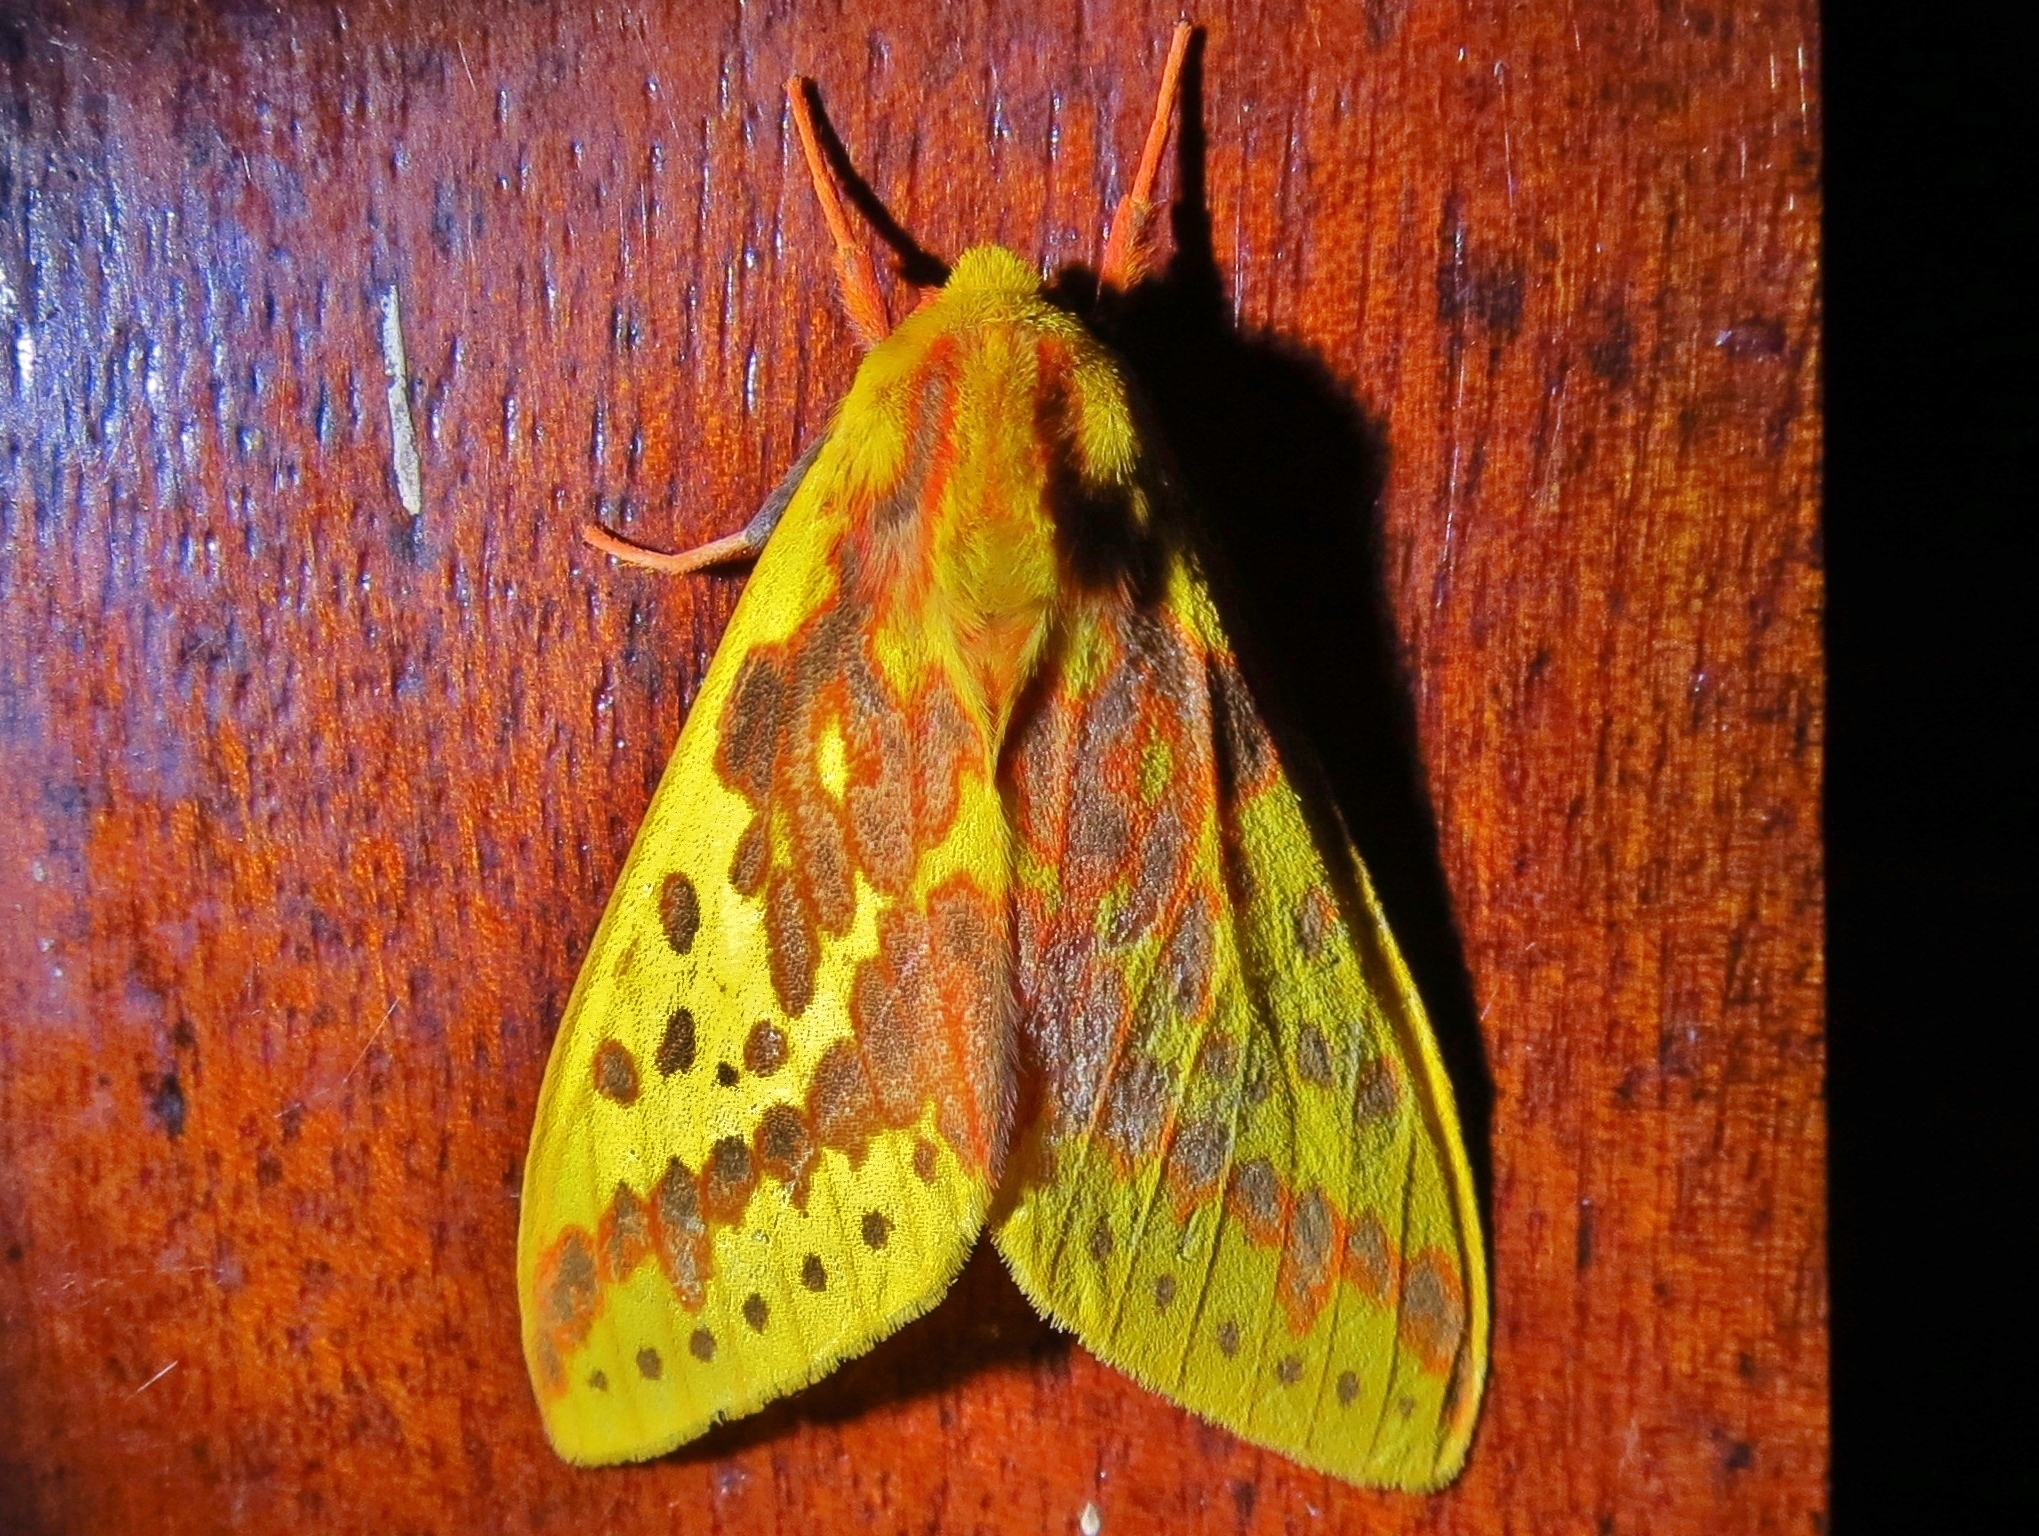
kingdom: Animalia
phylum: Arthropoda
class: Insecta
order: Lepidoptera
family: Erebidae
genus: Symphlebia
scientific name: Symphlebia ipsea
